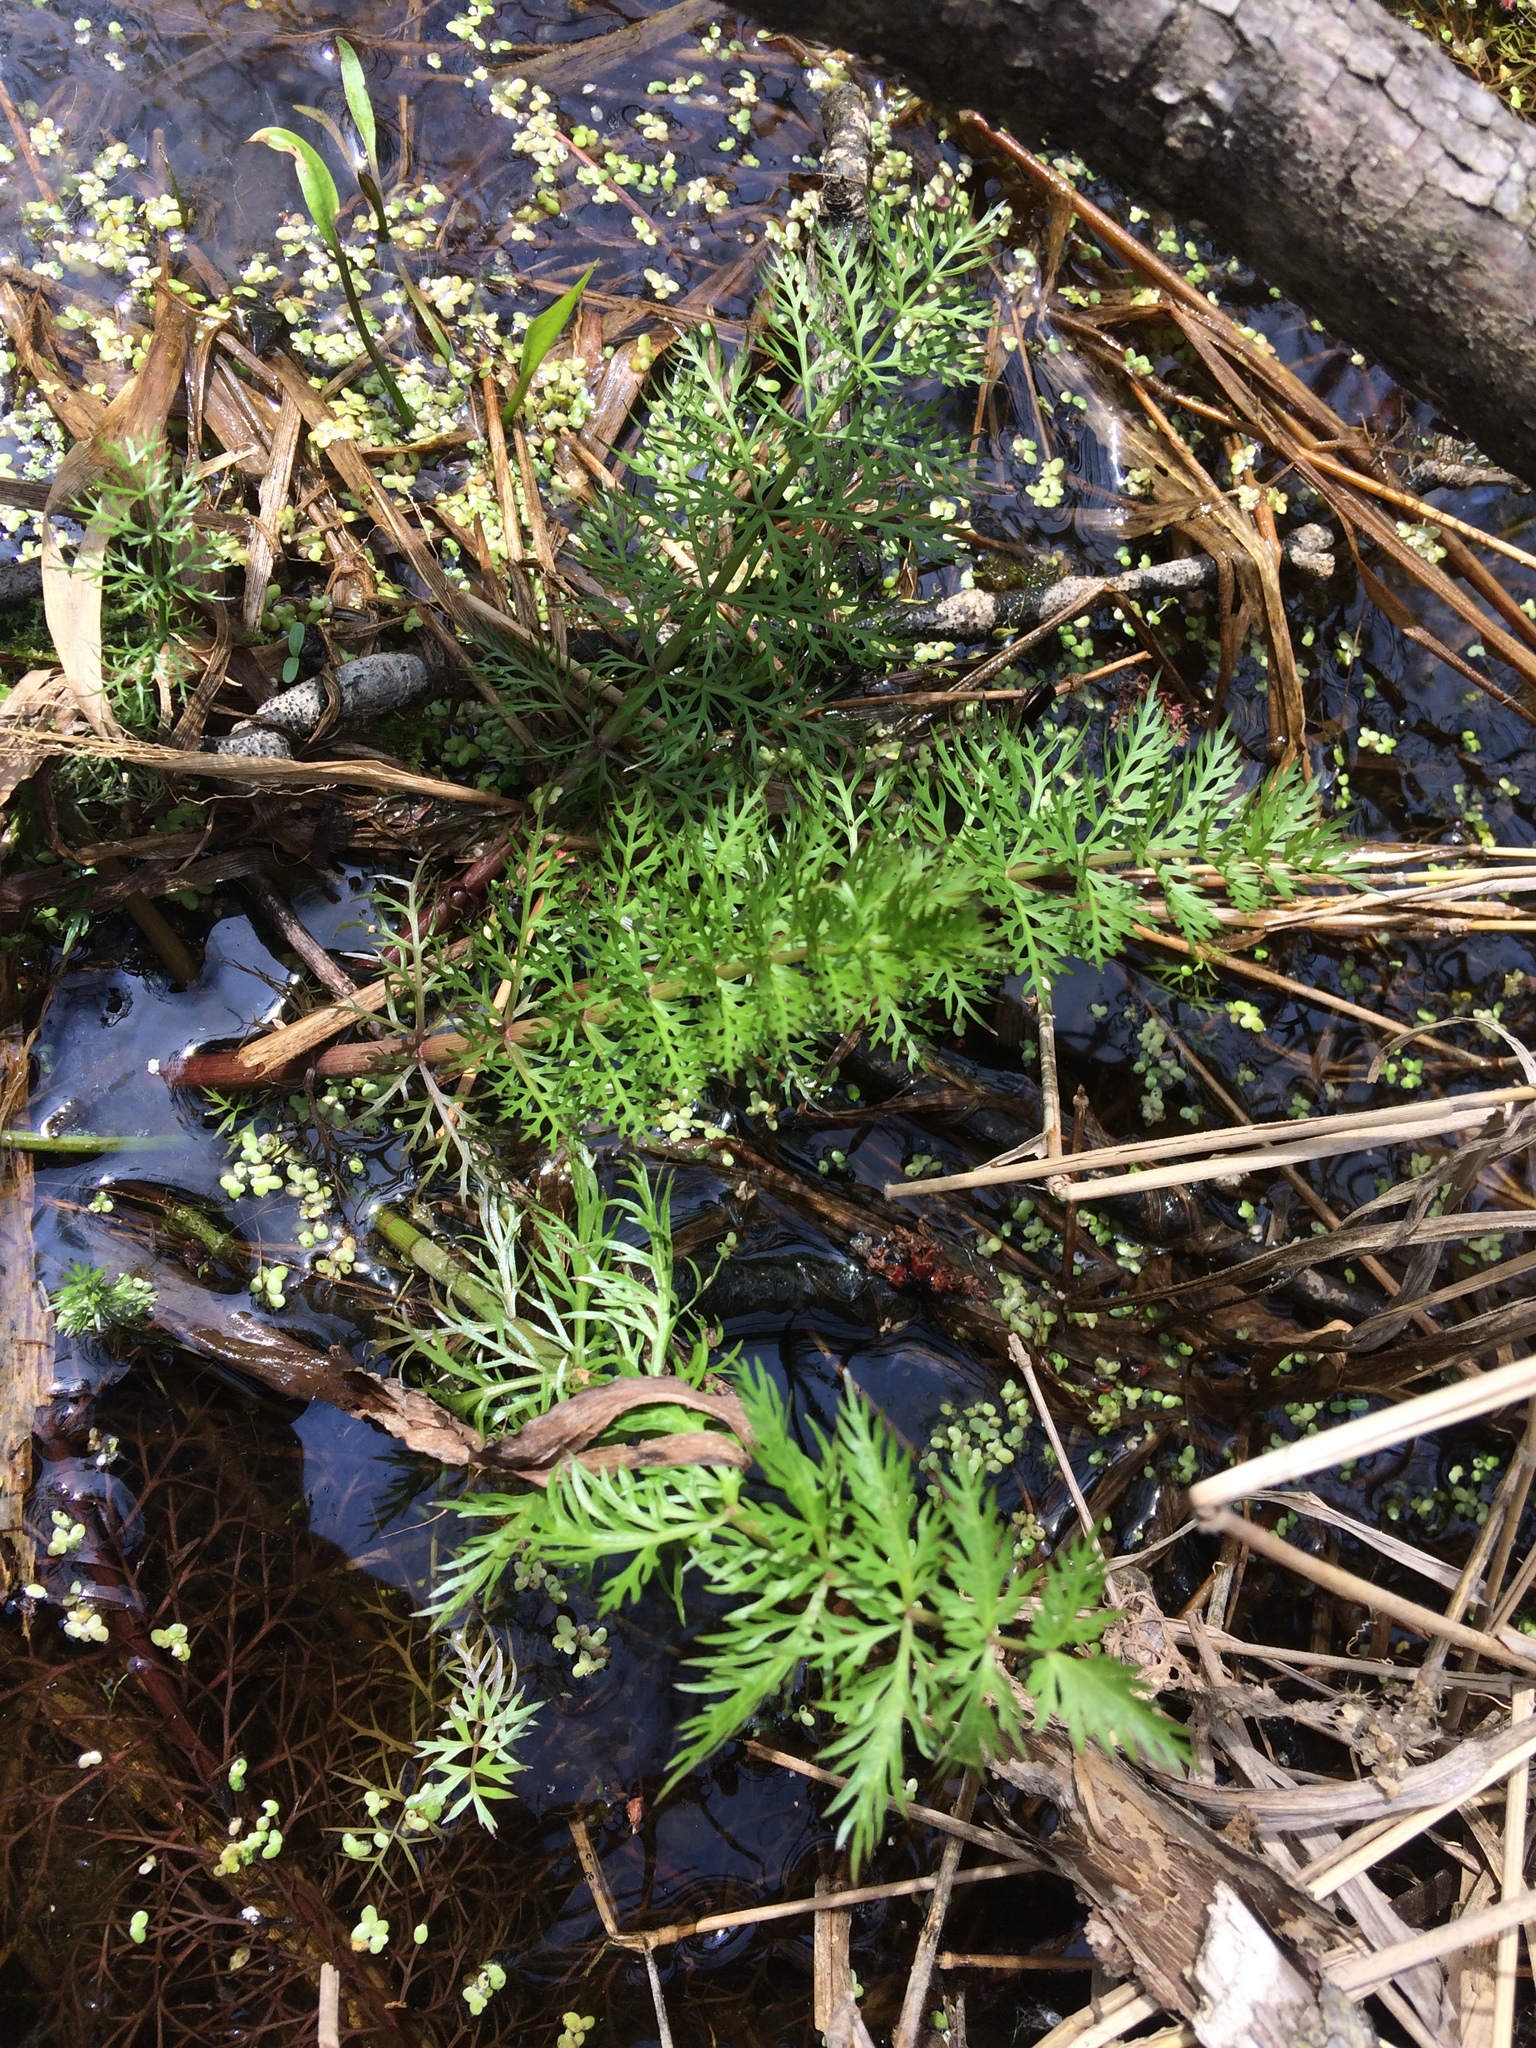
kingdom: Plantae
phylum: Tracheophyta
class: Magnoliopsida
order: Apiales
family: Apiaceae
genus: Sium
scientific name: Sium suave
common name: Hemlock water-parsnip
